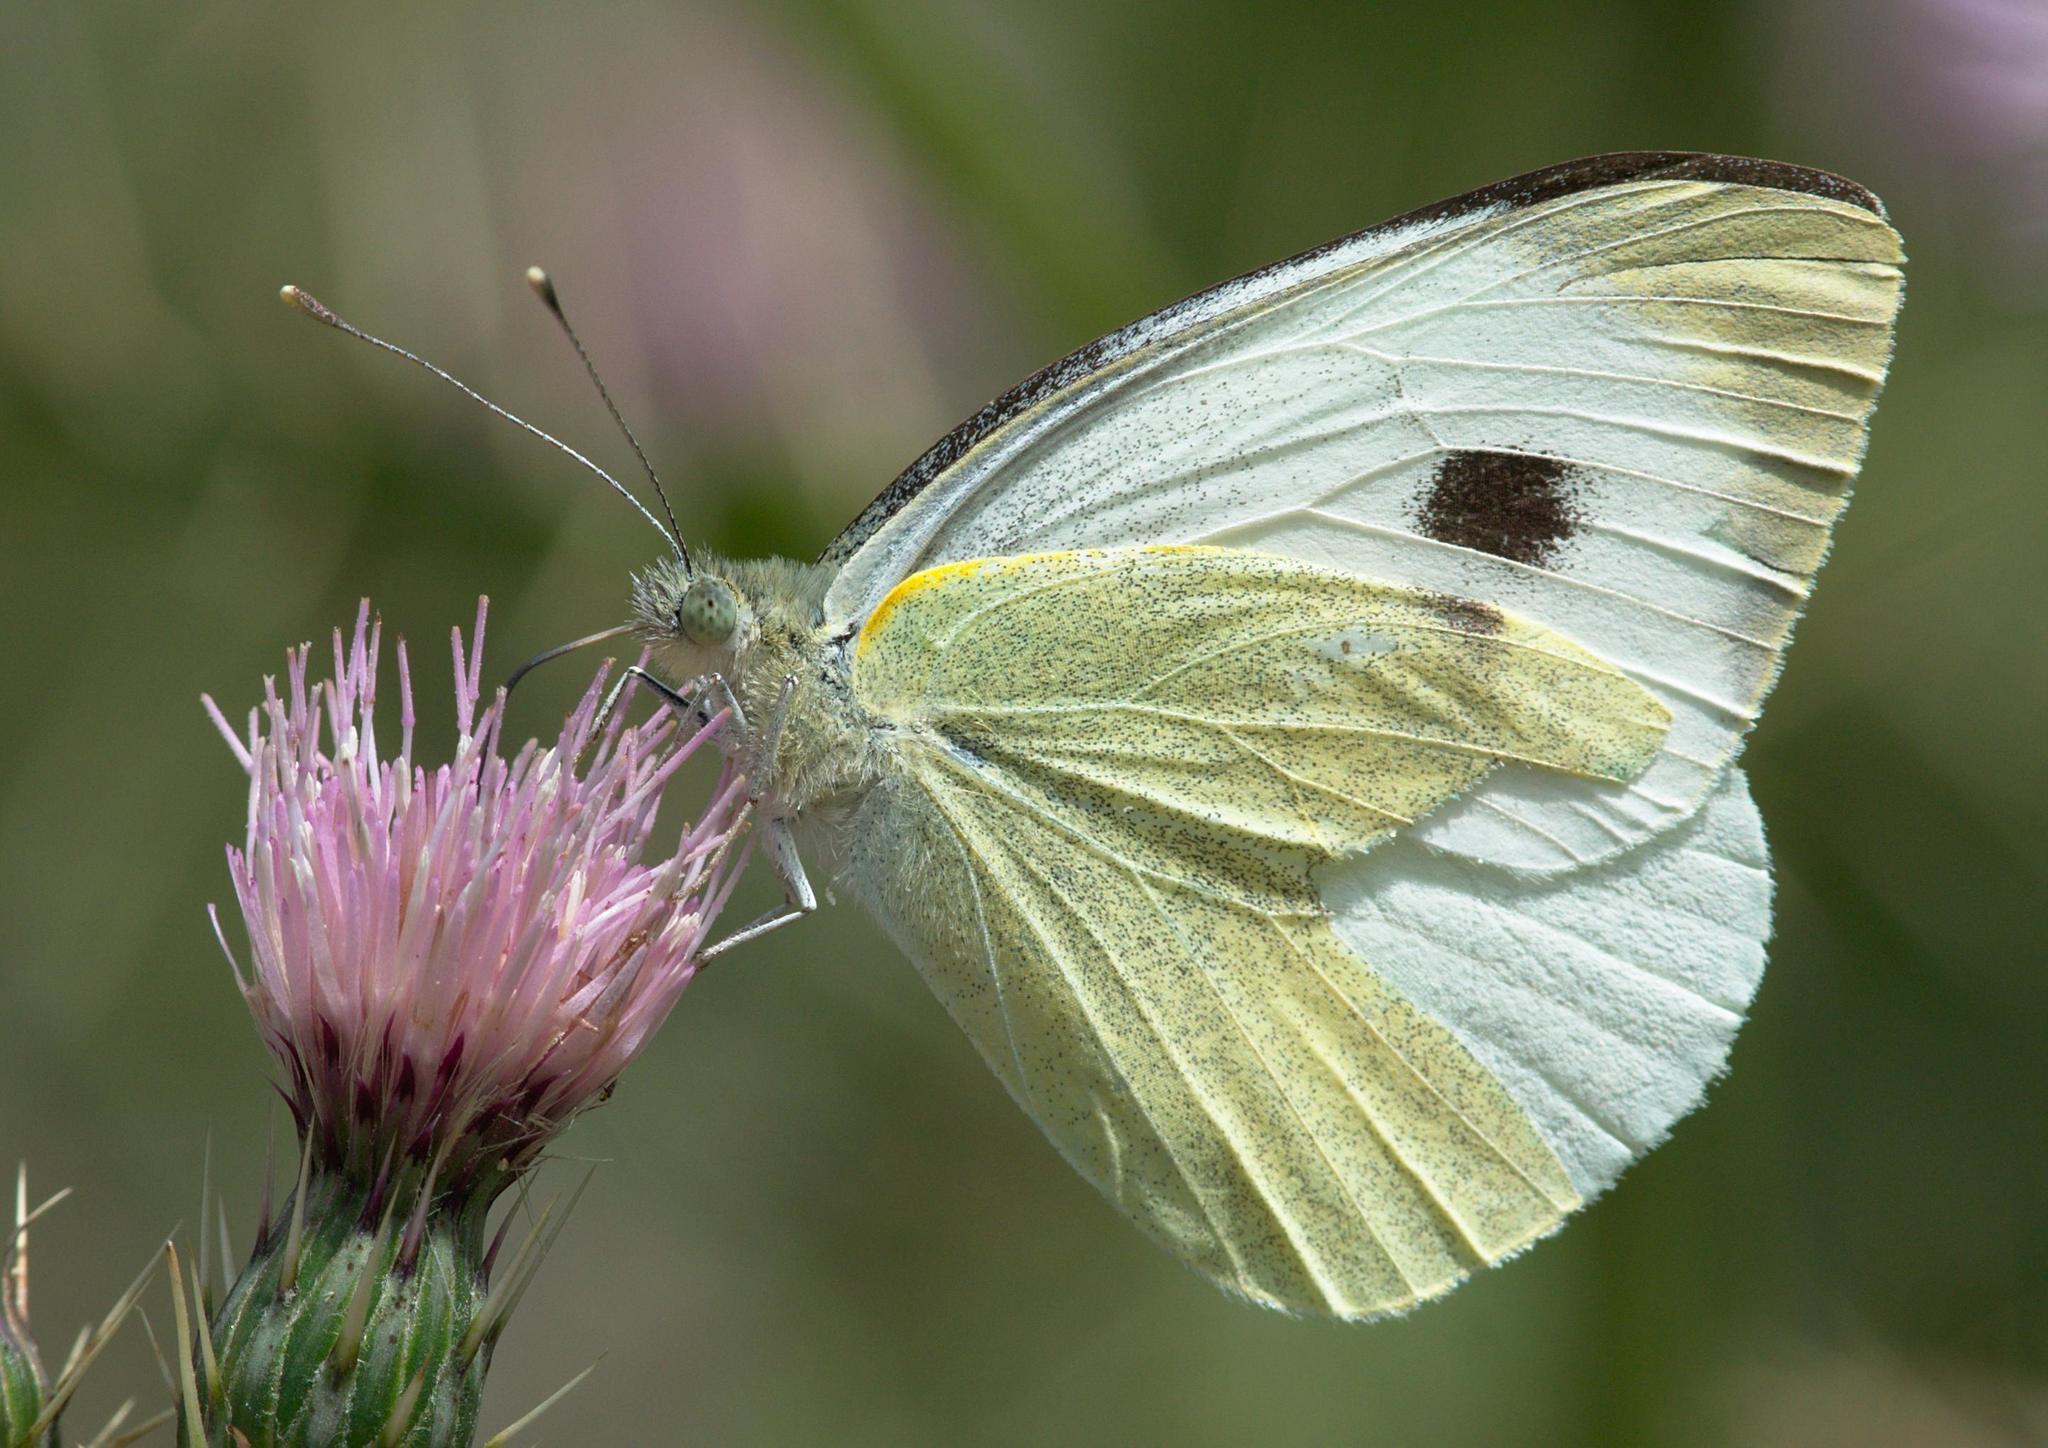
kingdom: Animalia
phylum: Arthropoda
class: Insecta
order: Lepidoptera
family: Pieridae
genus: Pieris
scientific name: Pieris brassicae
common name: Large white
